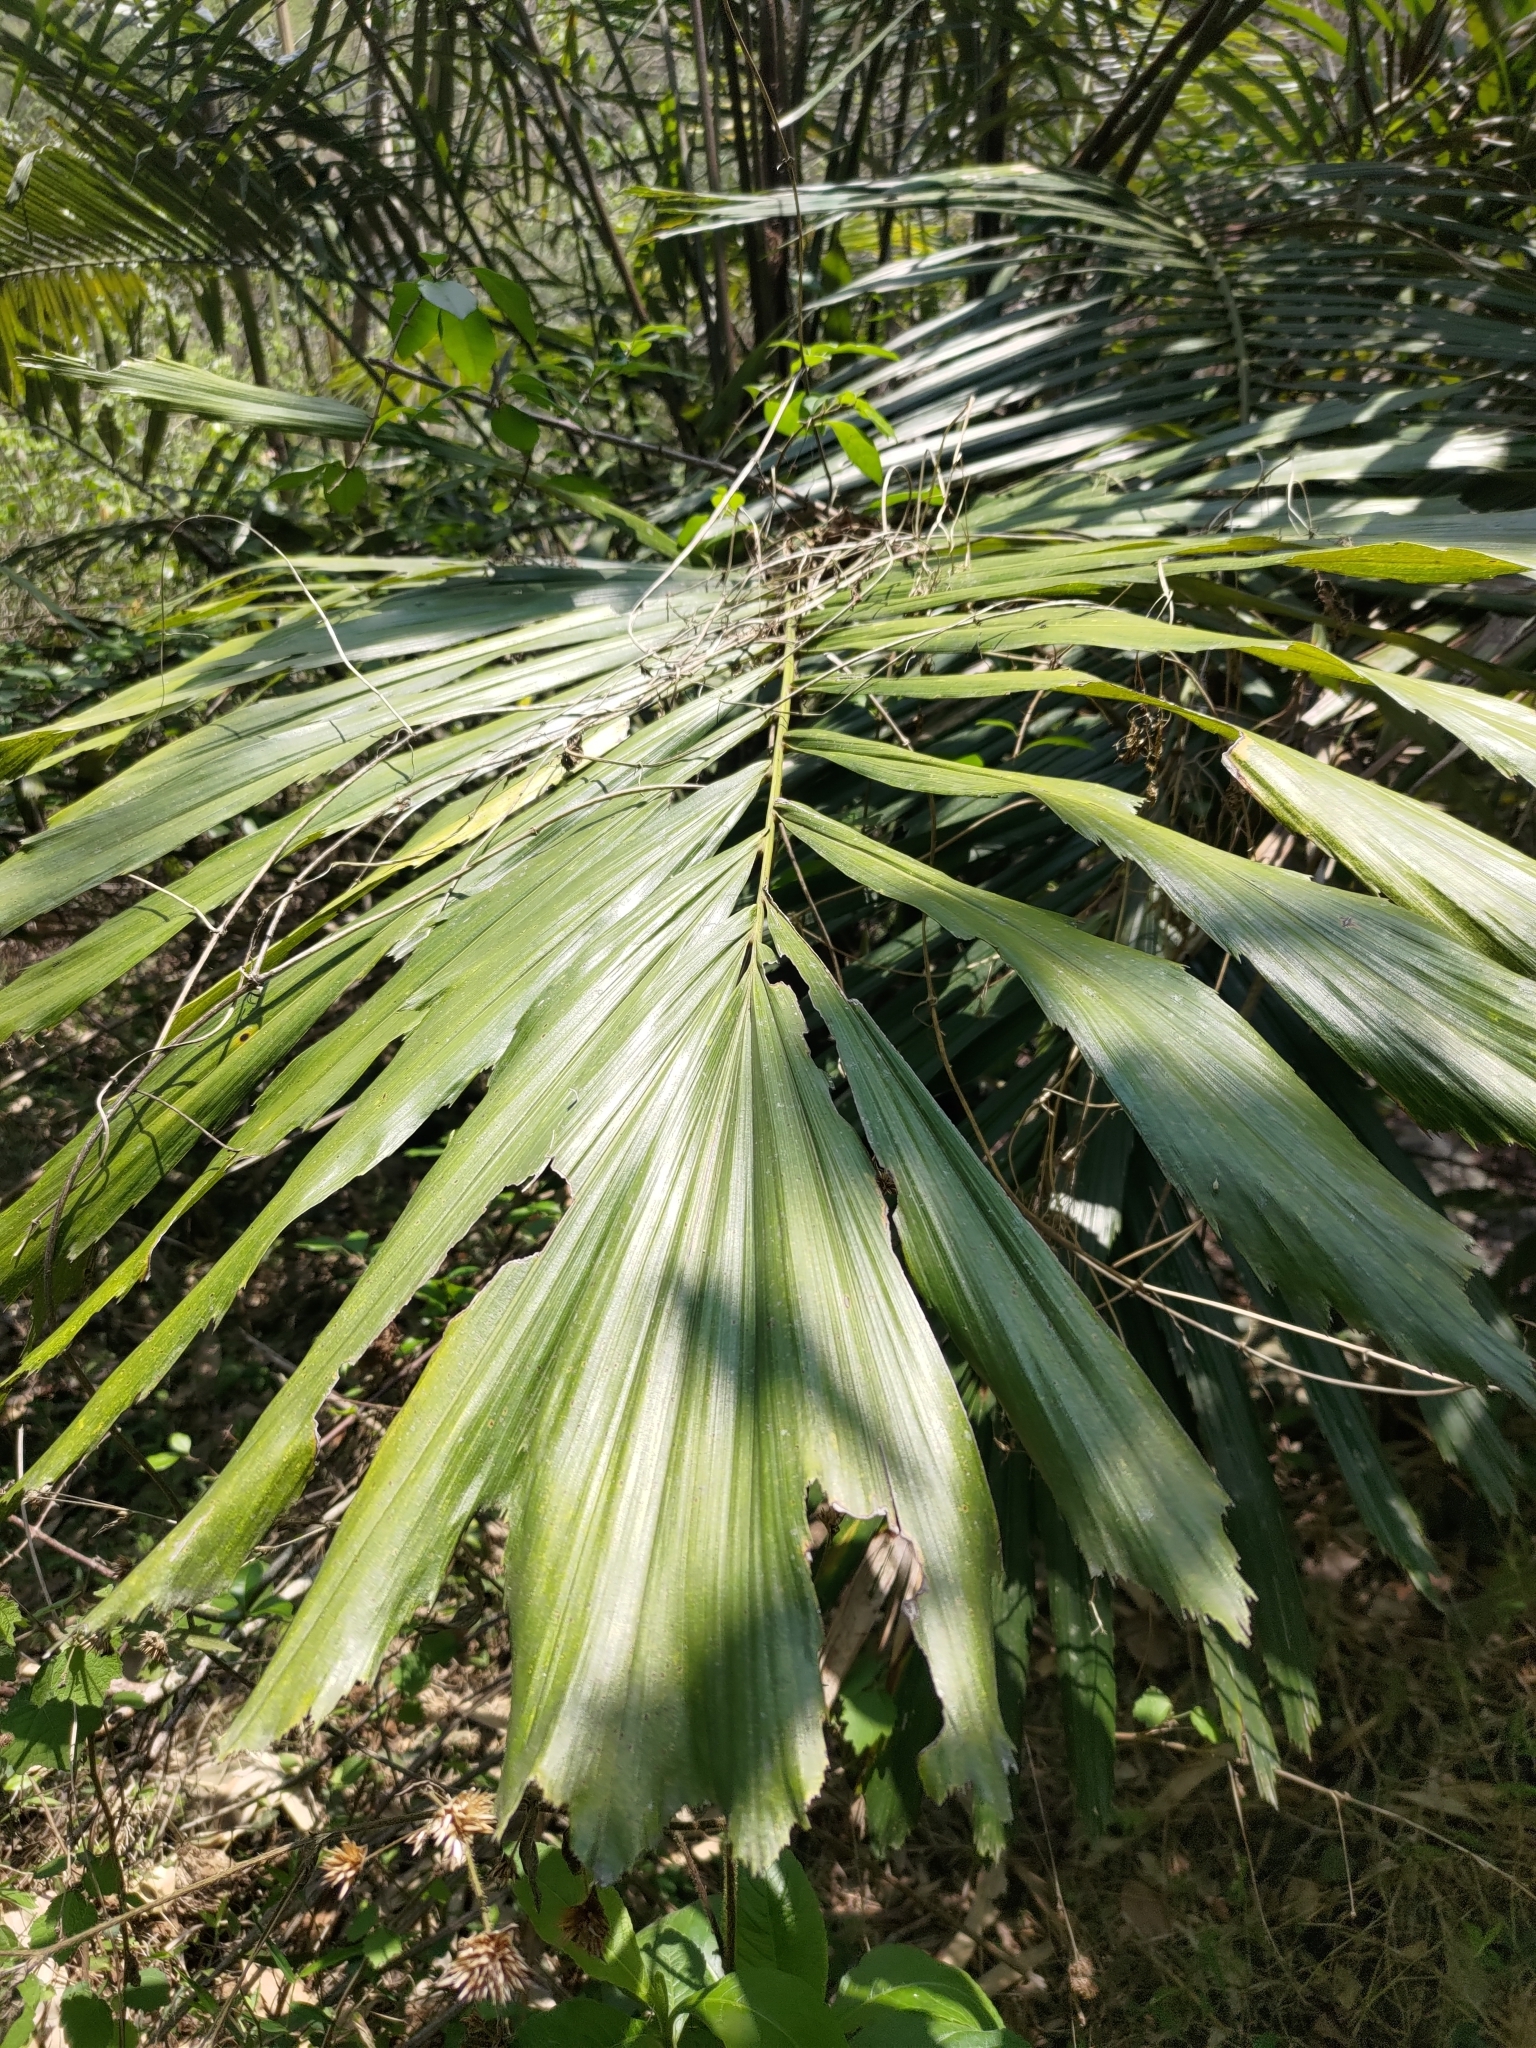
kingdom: Plantae
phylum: Tracheophyta
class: Liliopsida
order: Arecales
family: Arecaceae
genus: Arenga
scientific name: Arenga engleri
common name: Formosan sugar palm
